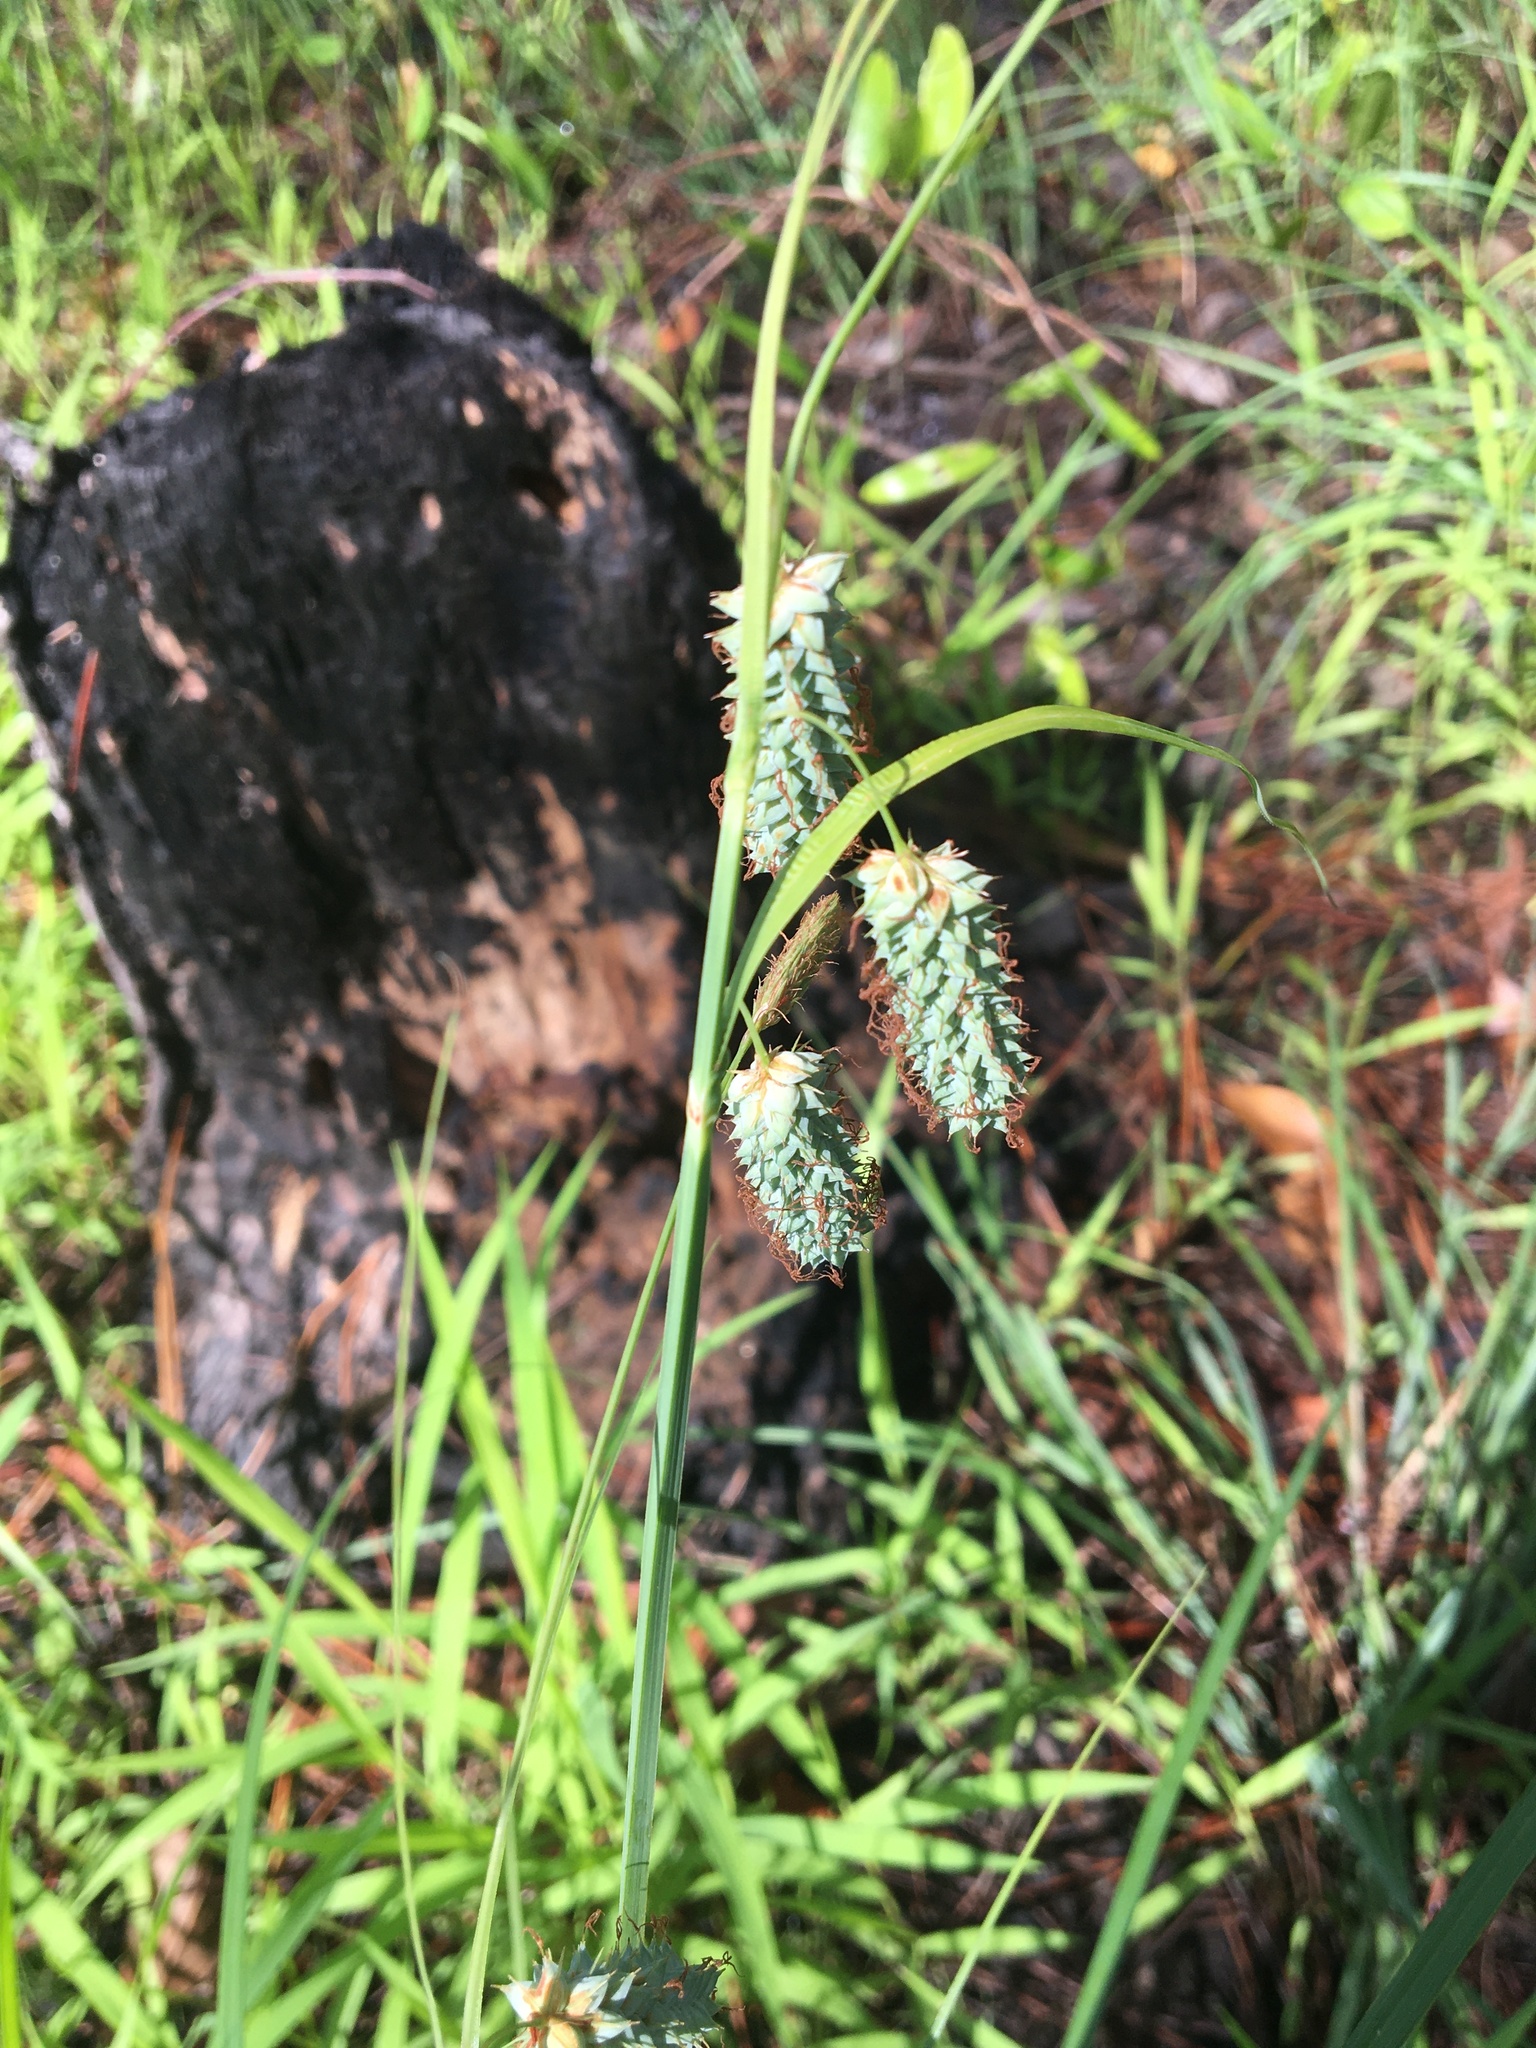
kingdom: Plantae
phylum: Tracheophyta
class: Liliopsida
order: Poales
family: Cyperaceae
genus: Carex
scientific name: Carex glaucescens
